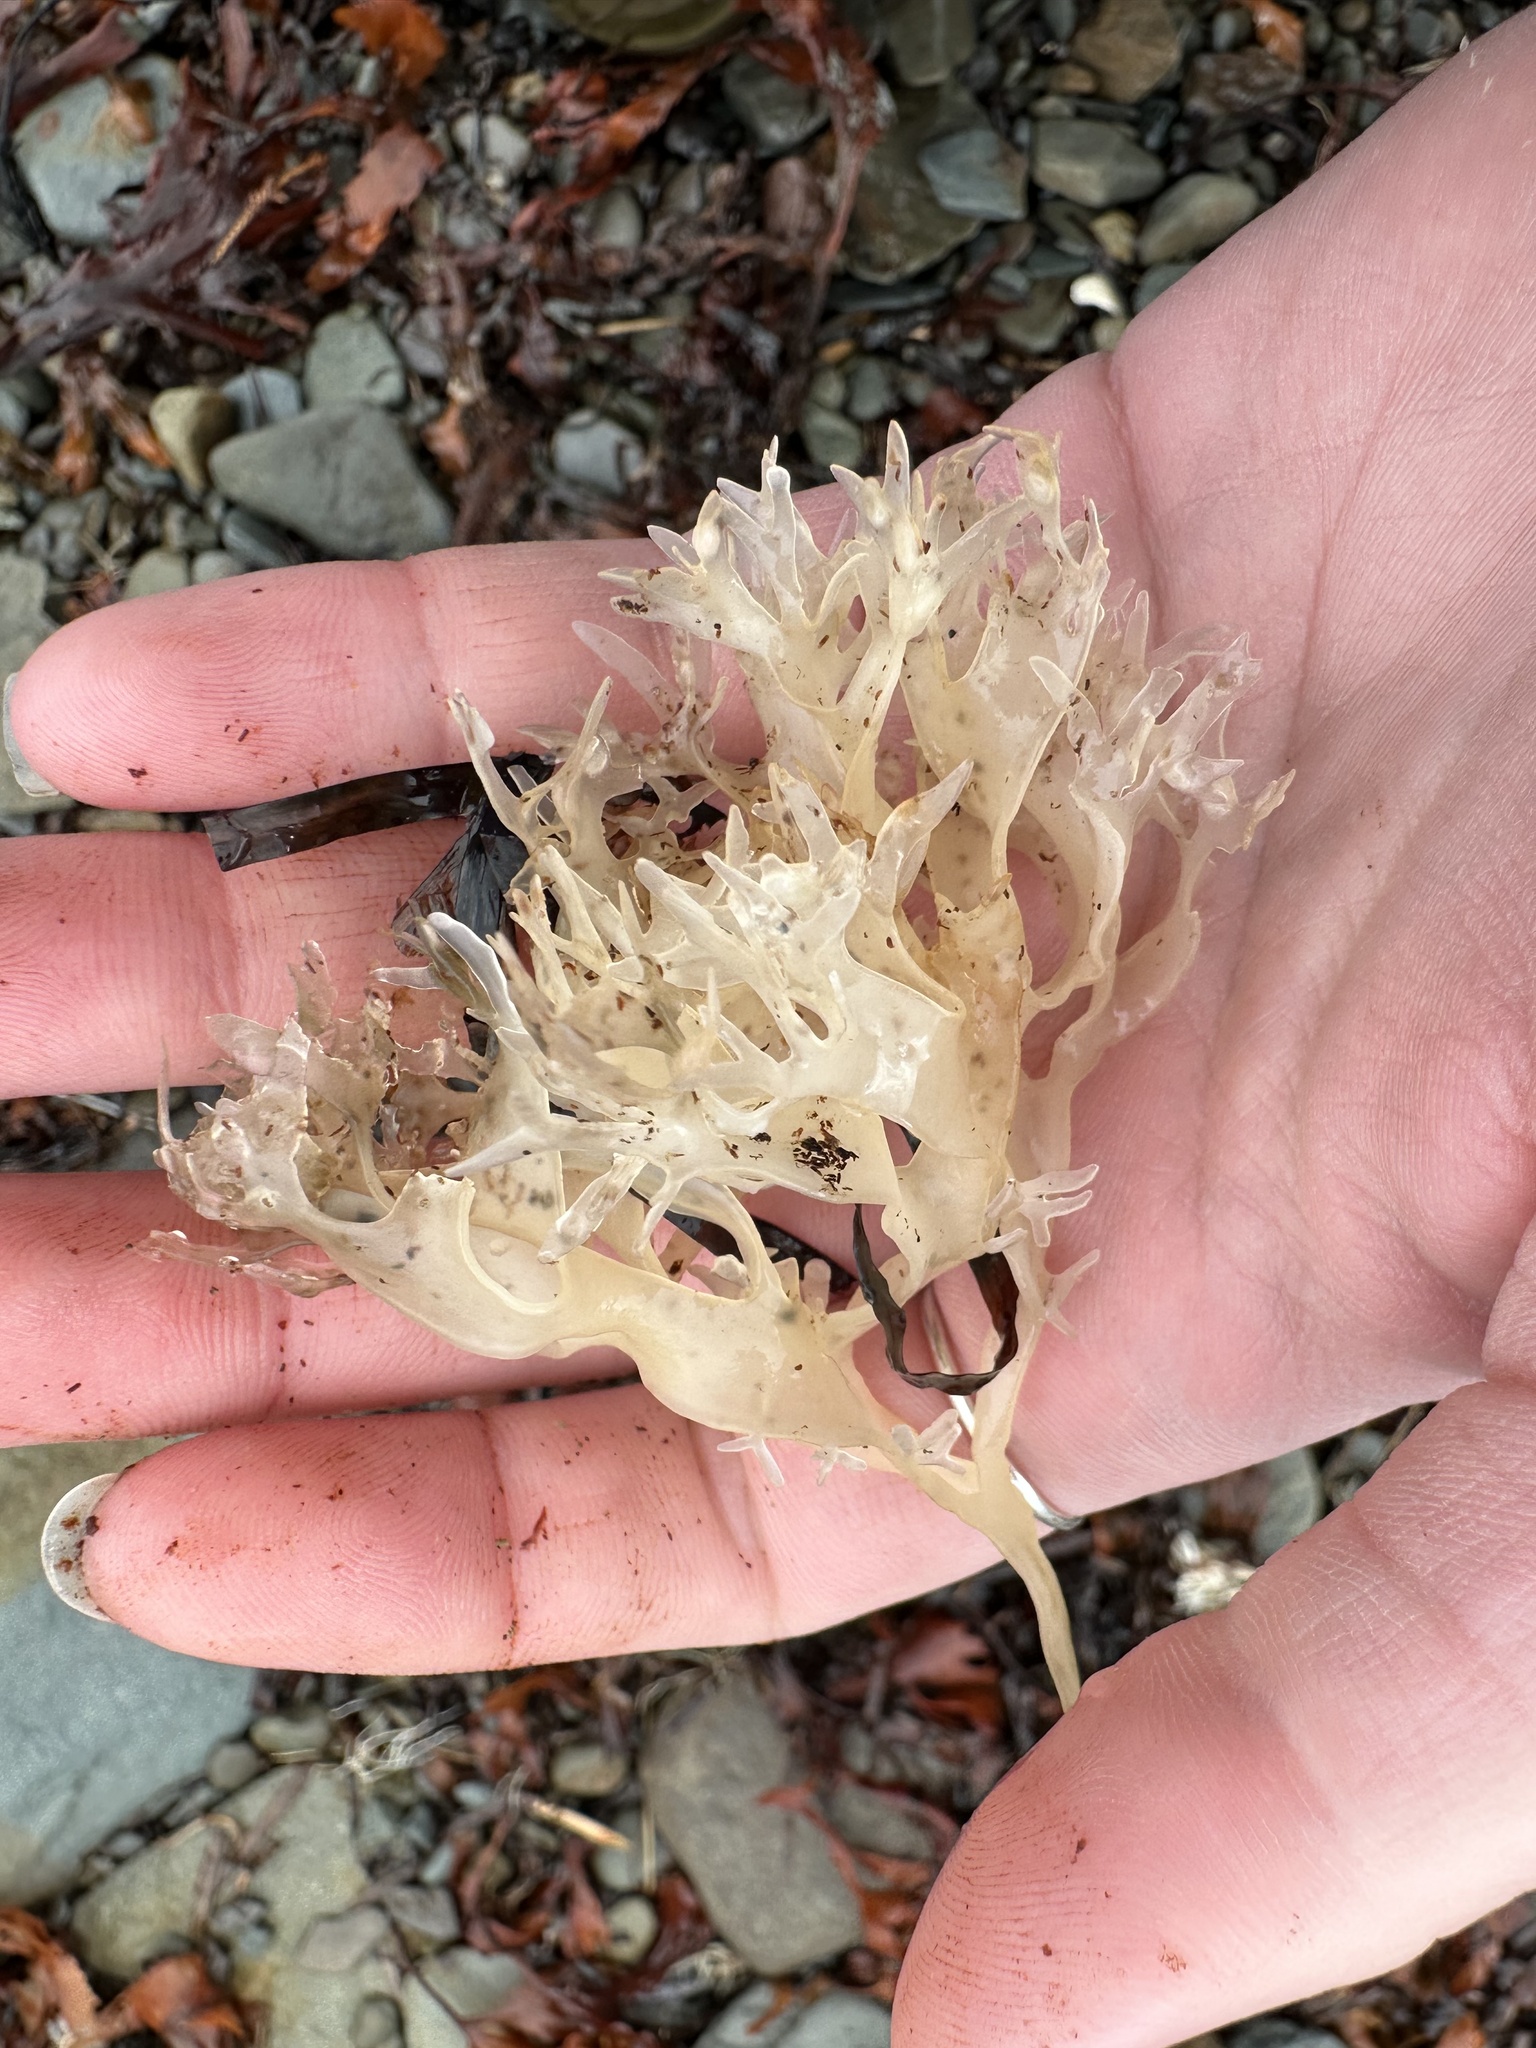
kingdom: Plantae
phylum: Rhodophyta
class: Florideophyceae
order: Gigartinales
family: Gigartinaceae
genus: Chondrus
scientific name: Chondrus crispus
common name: Carrageen
